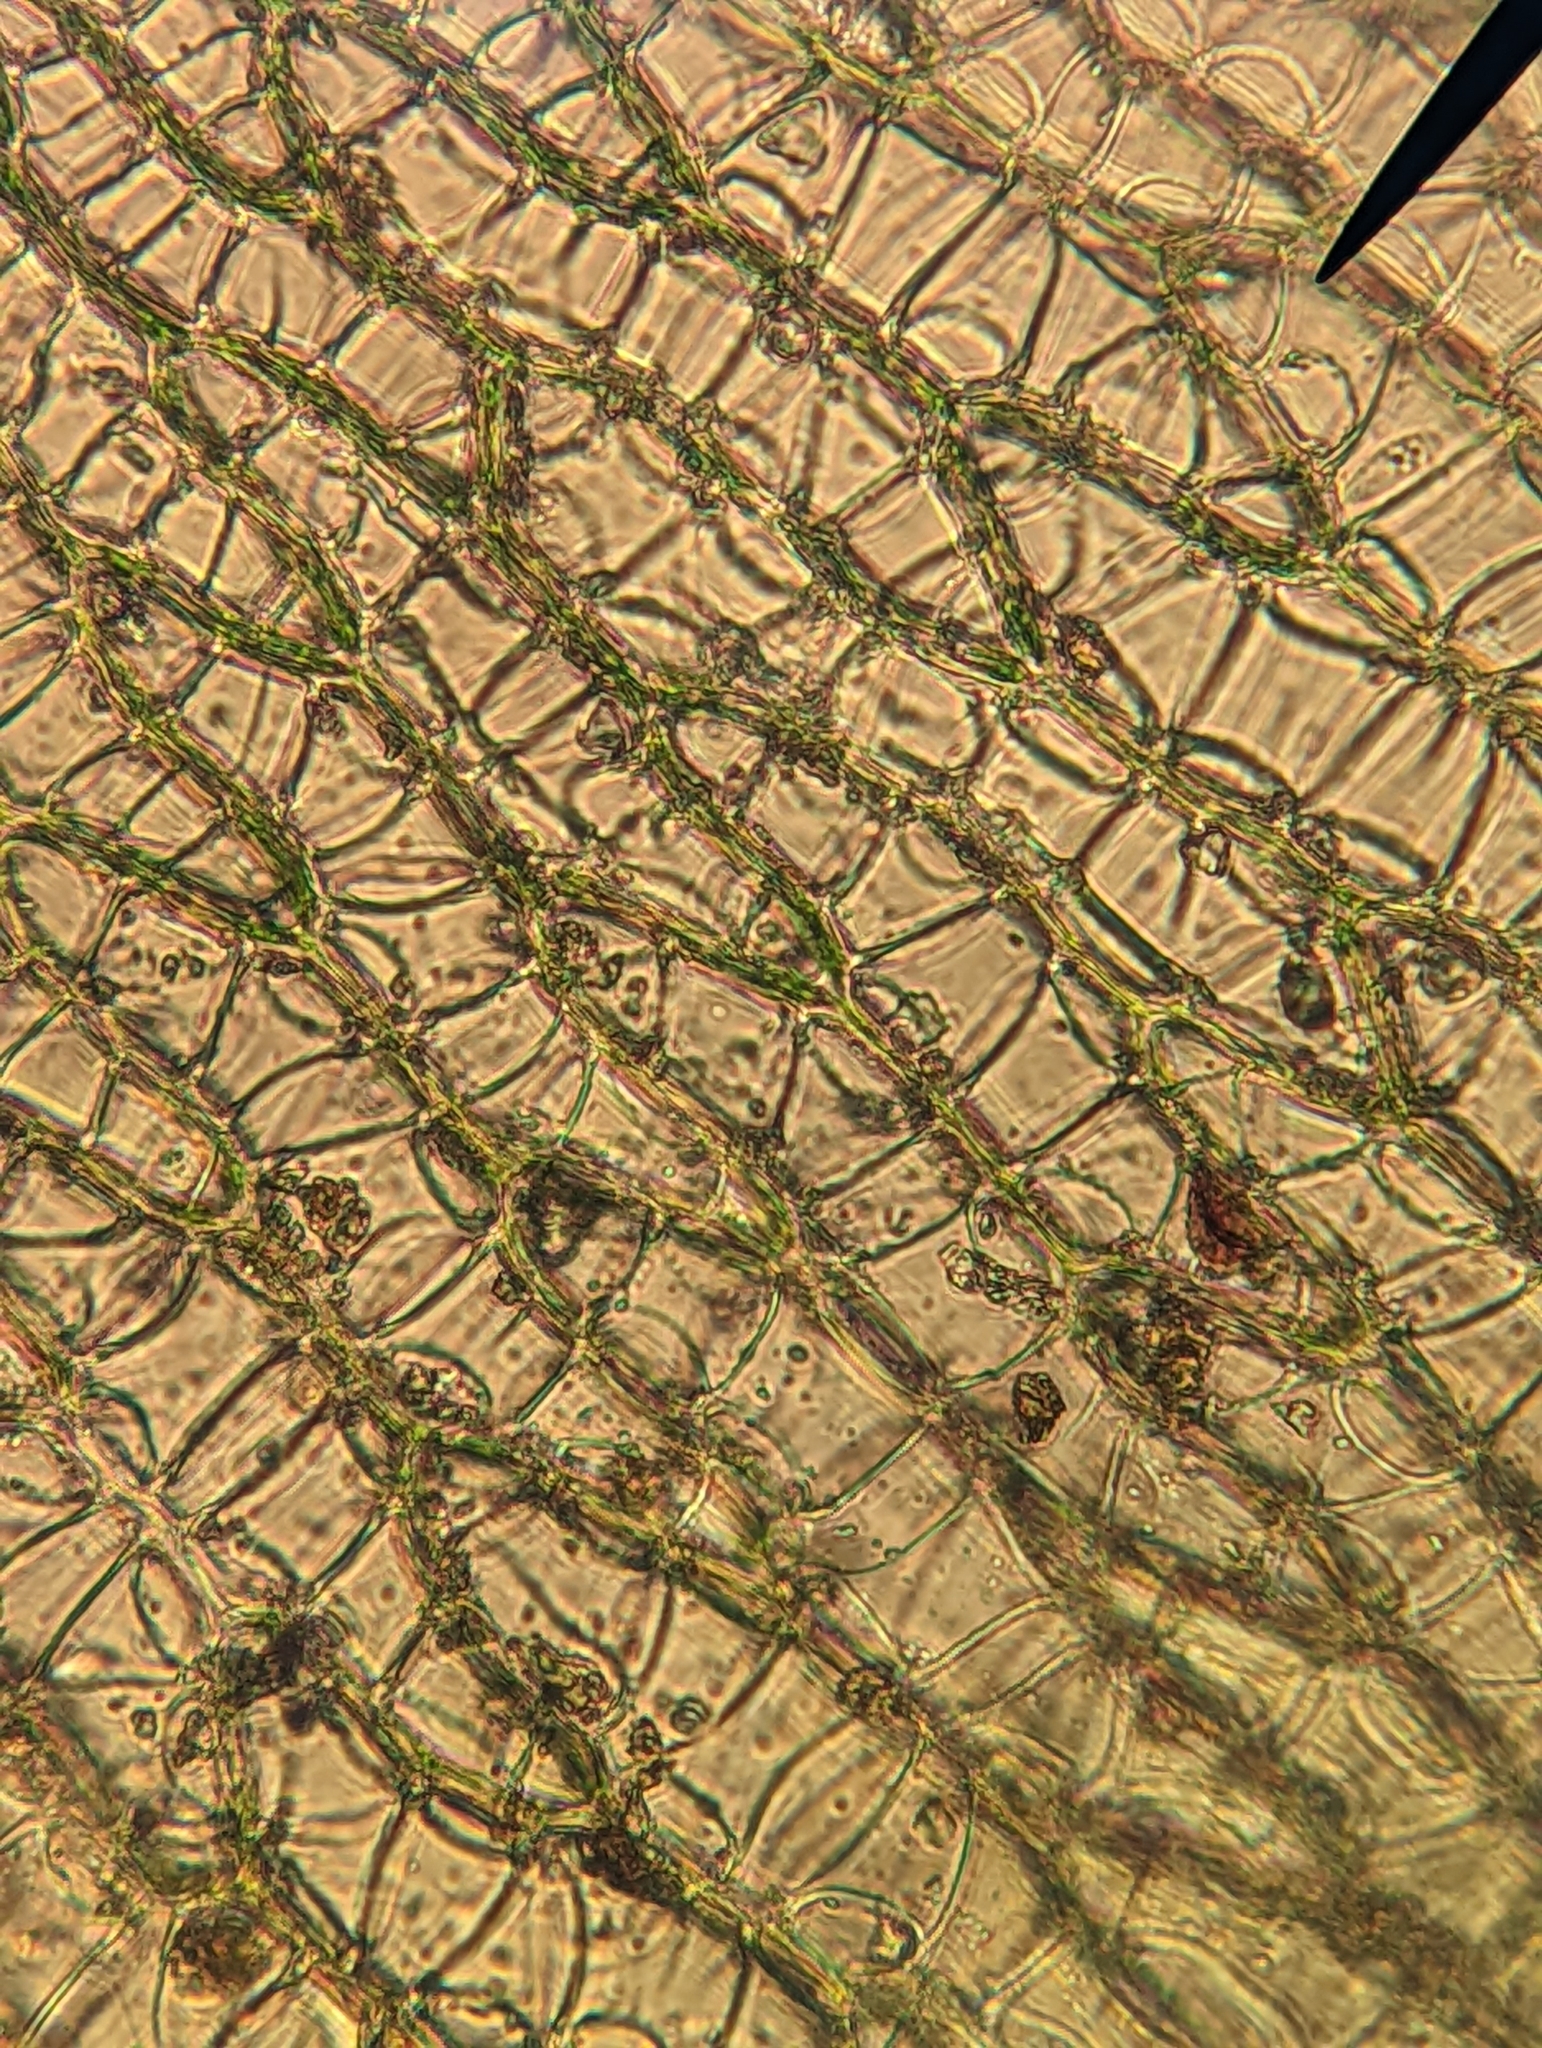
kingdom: Plantae
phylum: Bryophyta
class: Sphagnopsida
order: Sphagnales
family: Sphagnaceae
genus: Sphagnum
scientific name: Sphagnum rubiginosum
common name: Variegated peat moss
